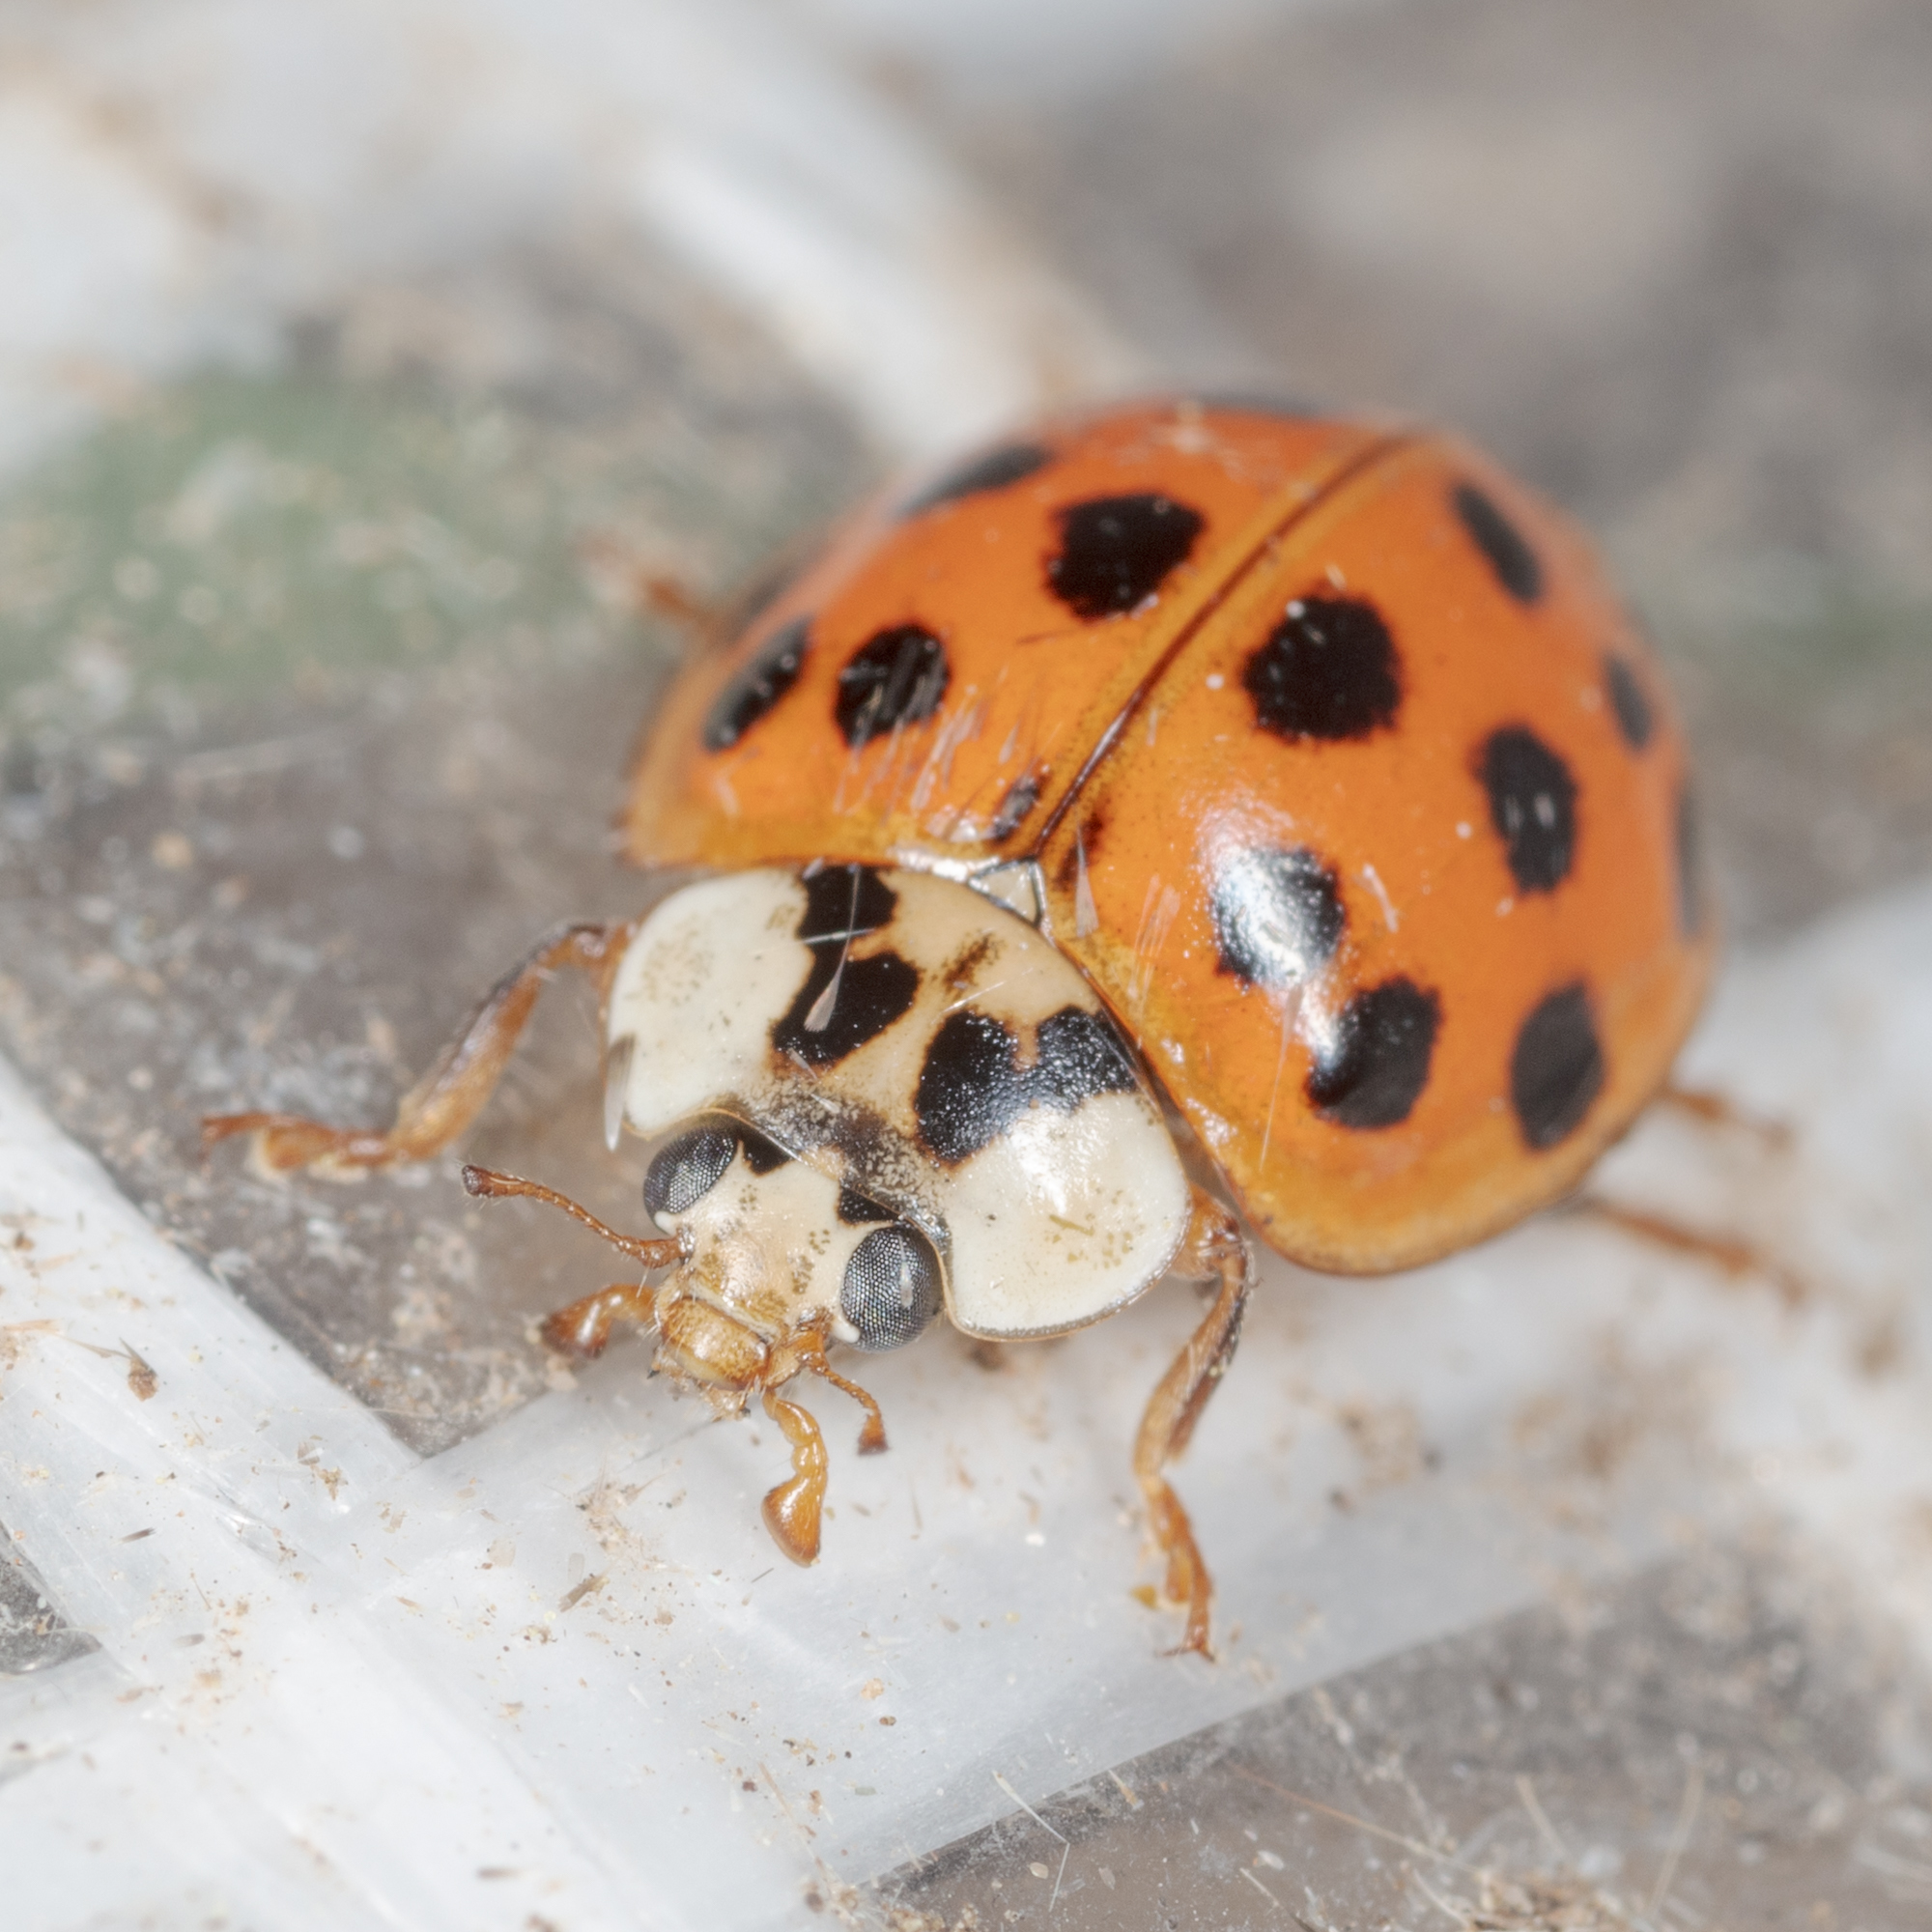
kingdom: Animalia
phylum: Arthropoda
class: Insecta
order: Coleoptera
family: Coccinellidae
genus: Harmonia
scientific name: Harmonia axyridis
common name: Harlequin ladybird
